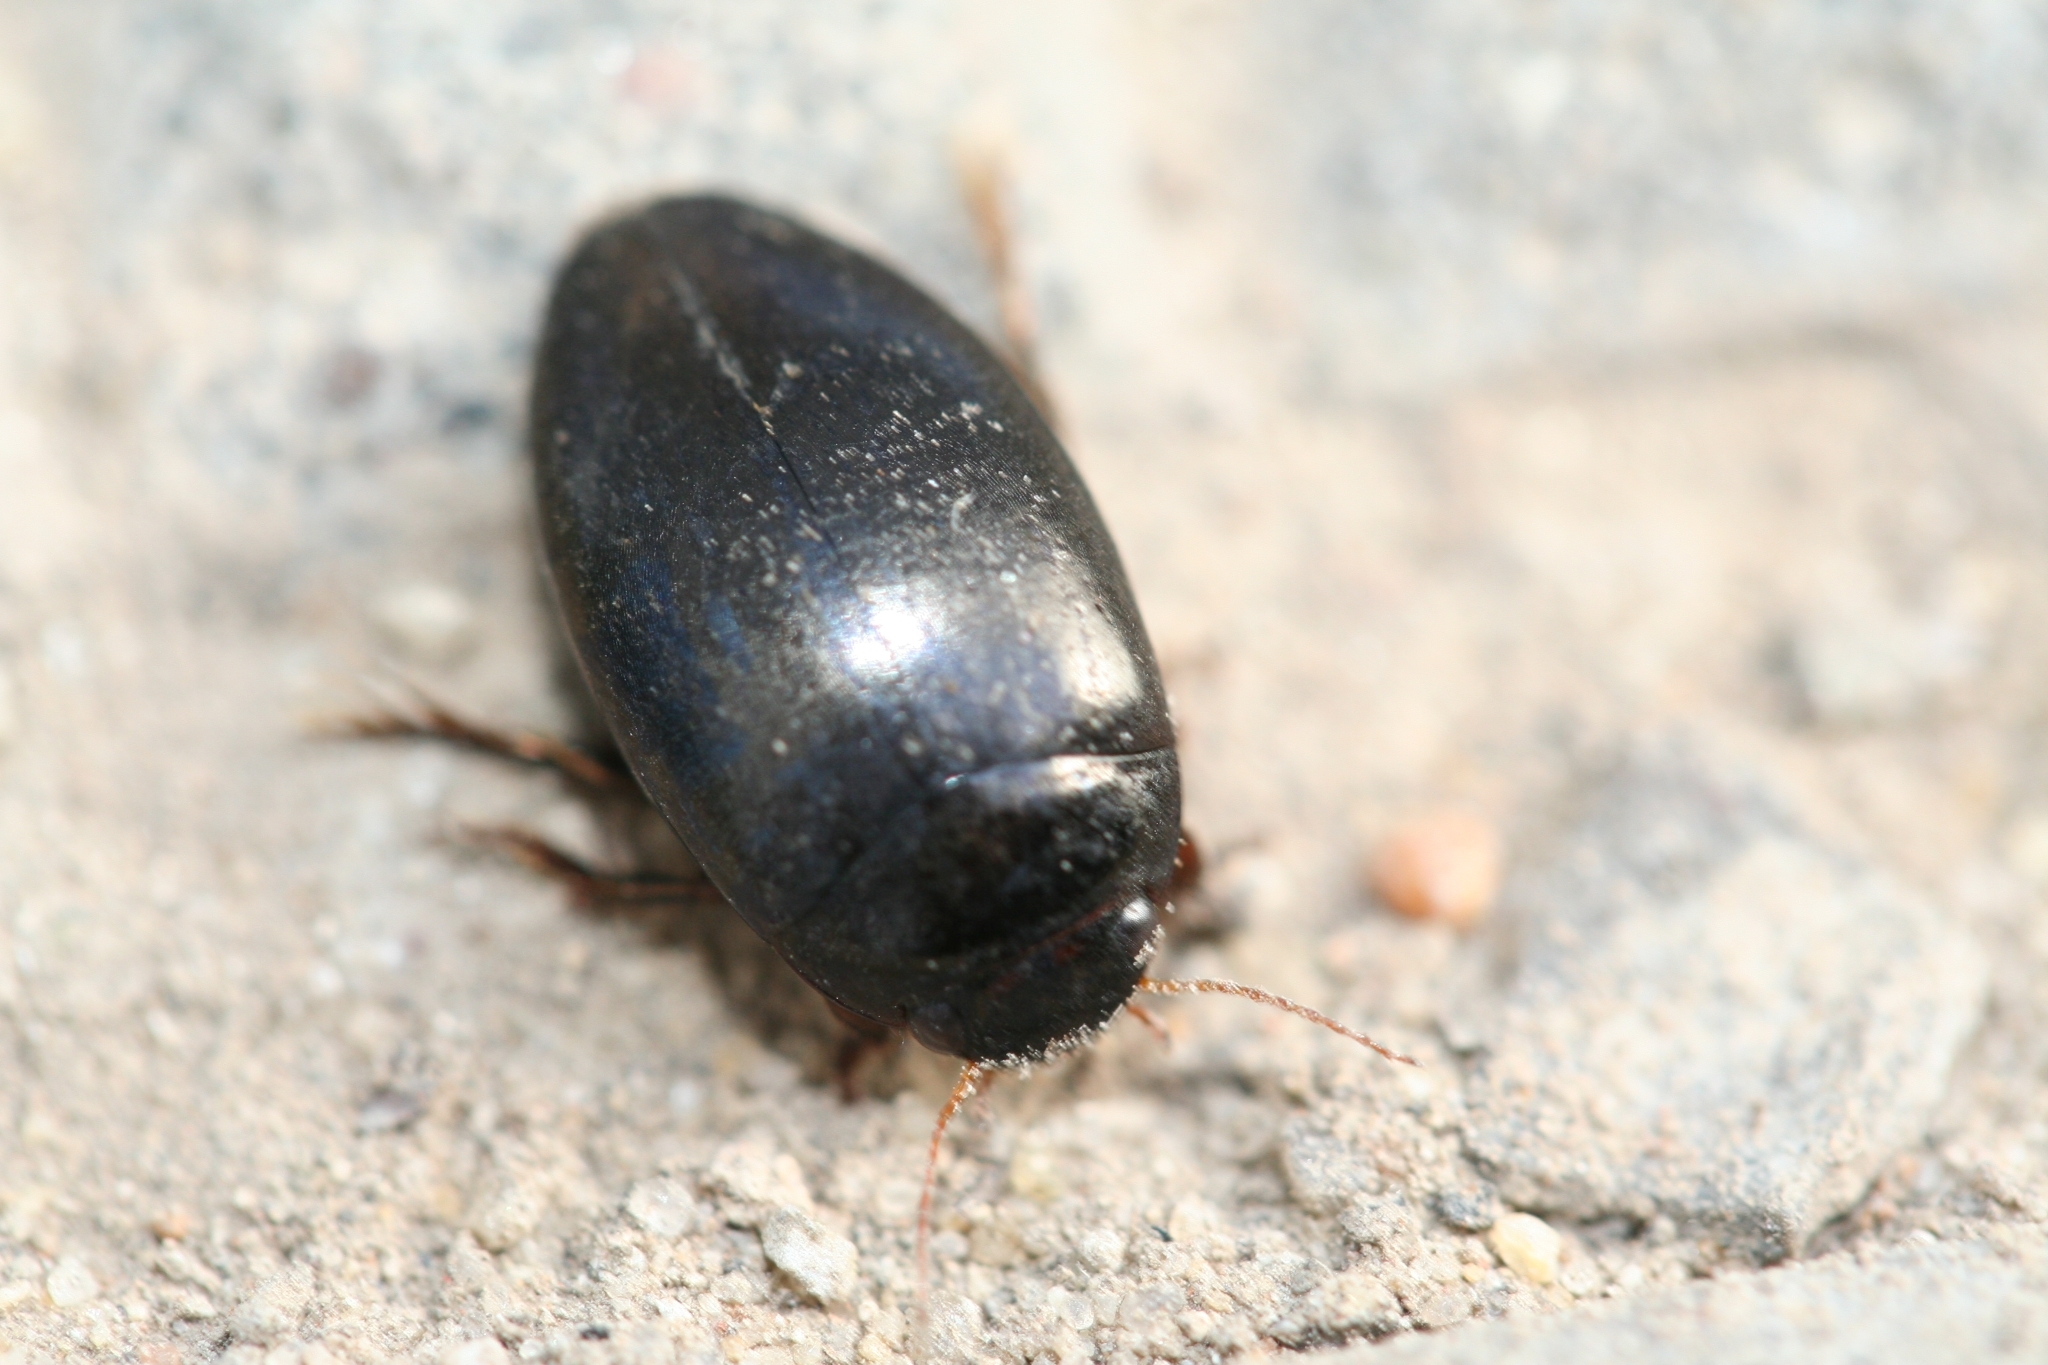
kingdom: Animalia
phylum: Arthropoda
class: Insecta
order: Coleoptera
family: Dytiscidae
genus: Agabus
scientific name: Agabus bipustulatus
